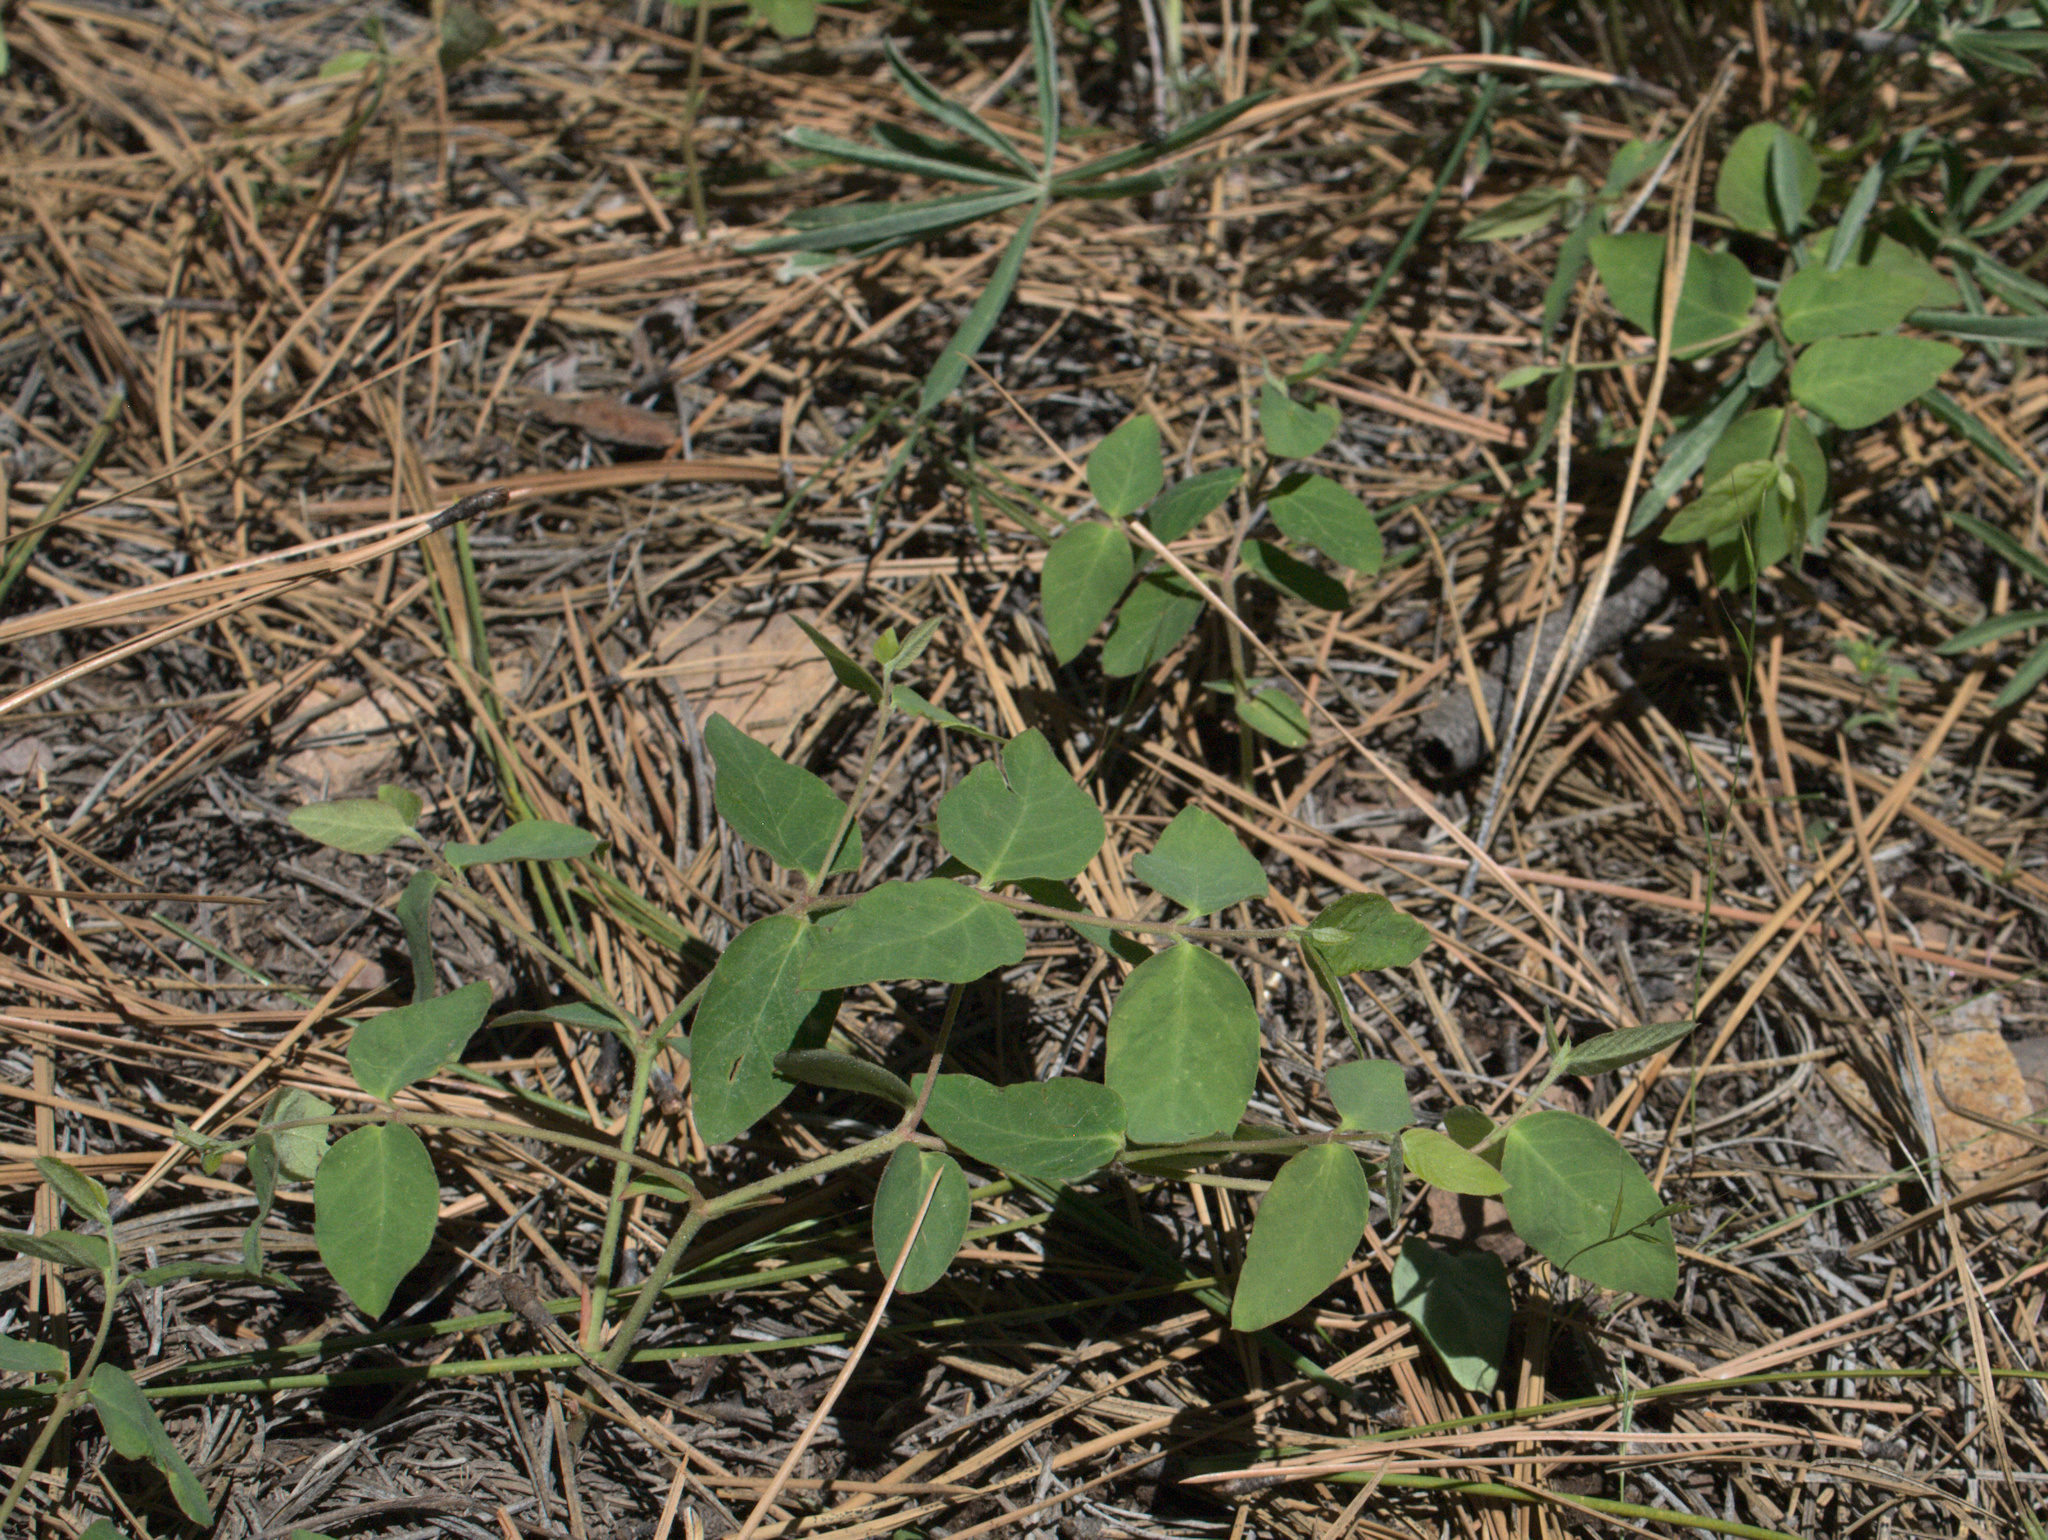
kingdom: Plantae
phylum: Tracheophyta
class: Magnoliopsida
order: Gentianales
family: Apocynaceae
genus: Apocynum
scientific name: Apocynum androsaemifolium
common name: Spreading dogbane
